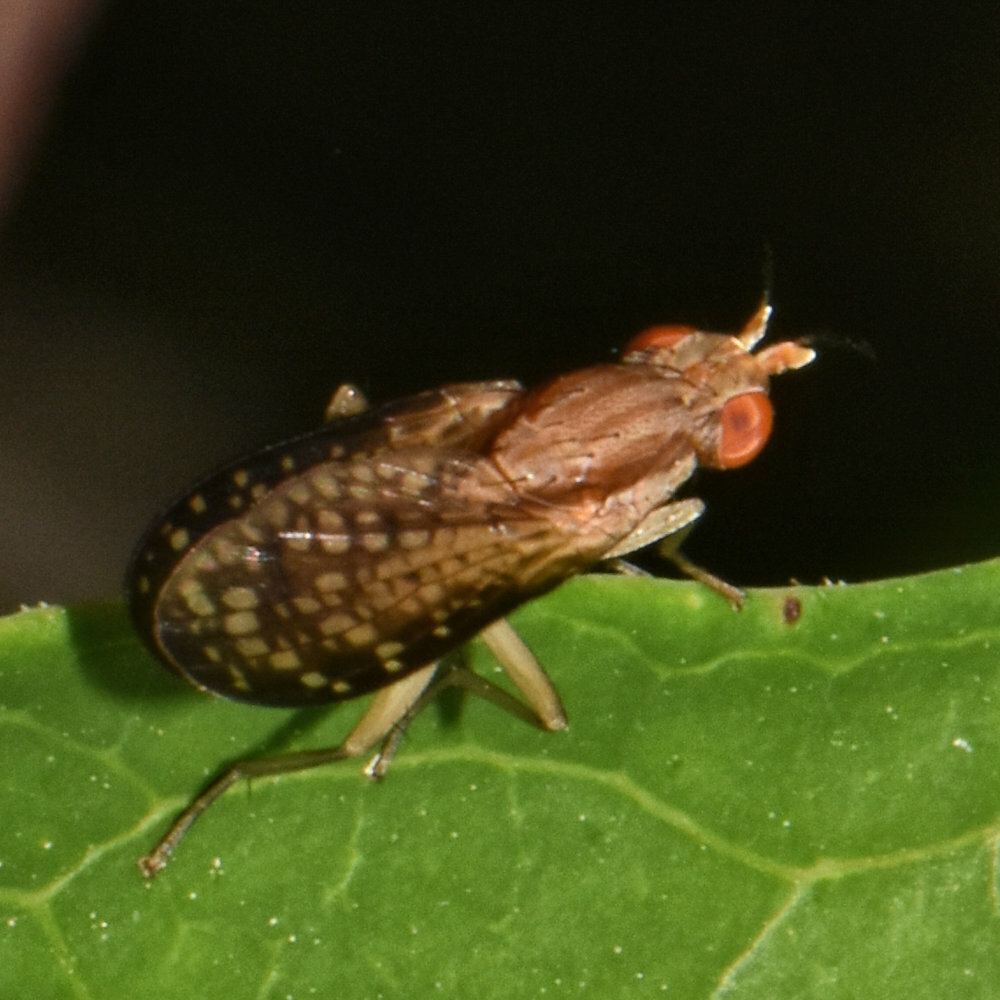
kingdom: Animalia
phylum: Arthropoda
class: Insecta
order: Diptera
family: Sciomyzidae
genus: Trypetoptera
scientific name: Trypetoptera canadensis
